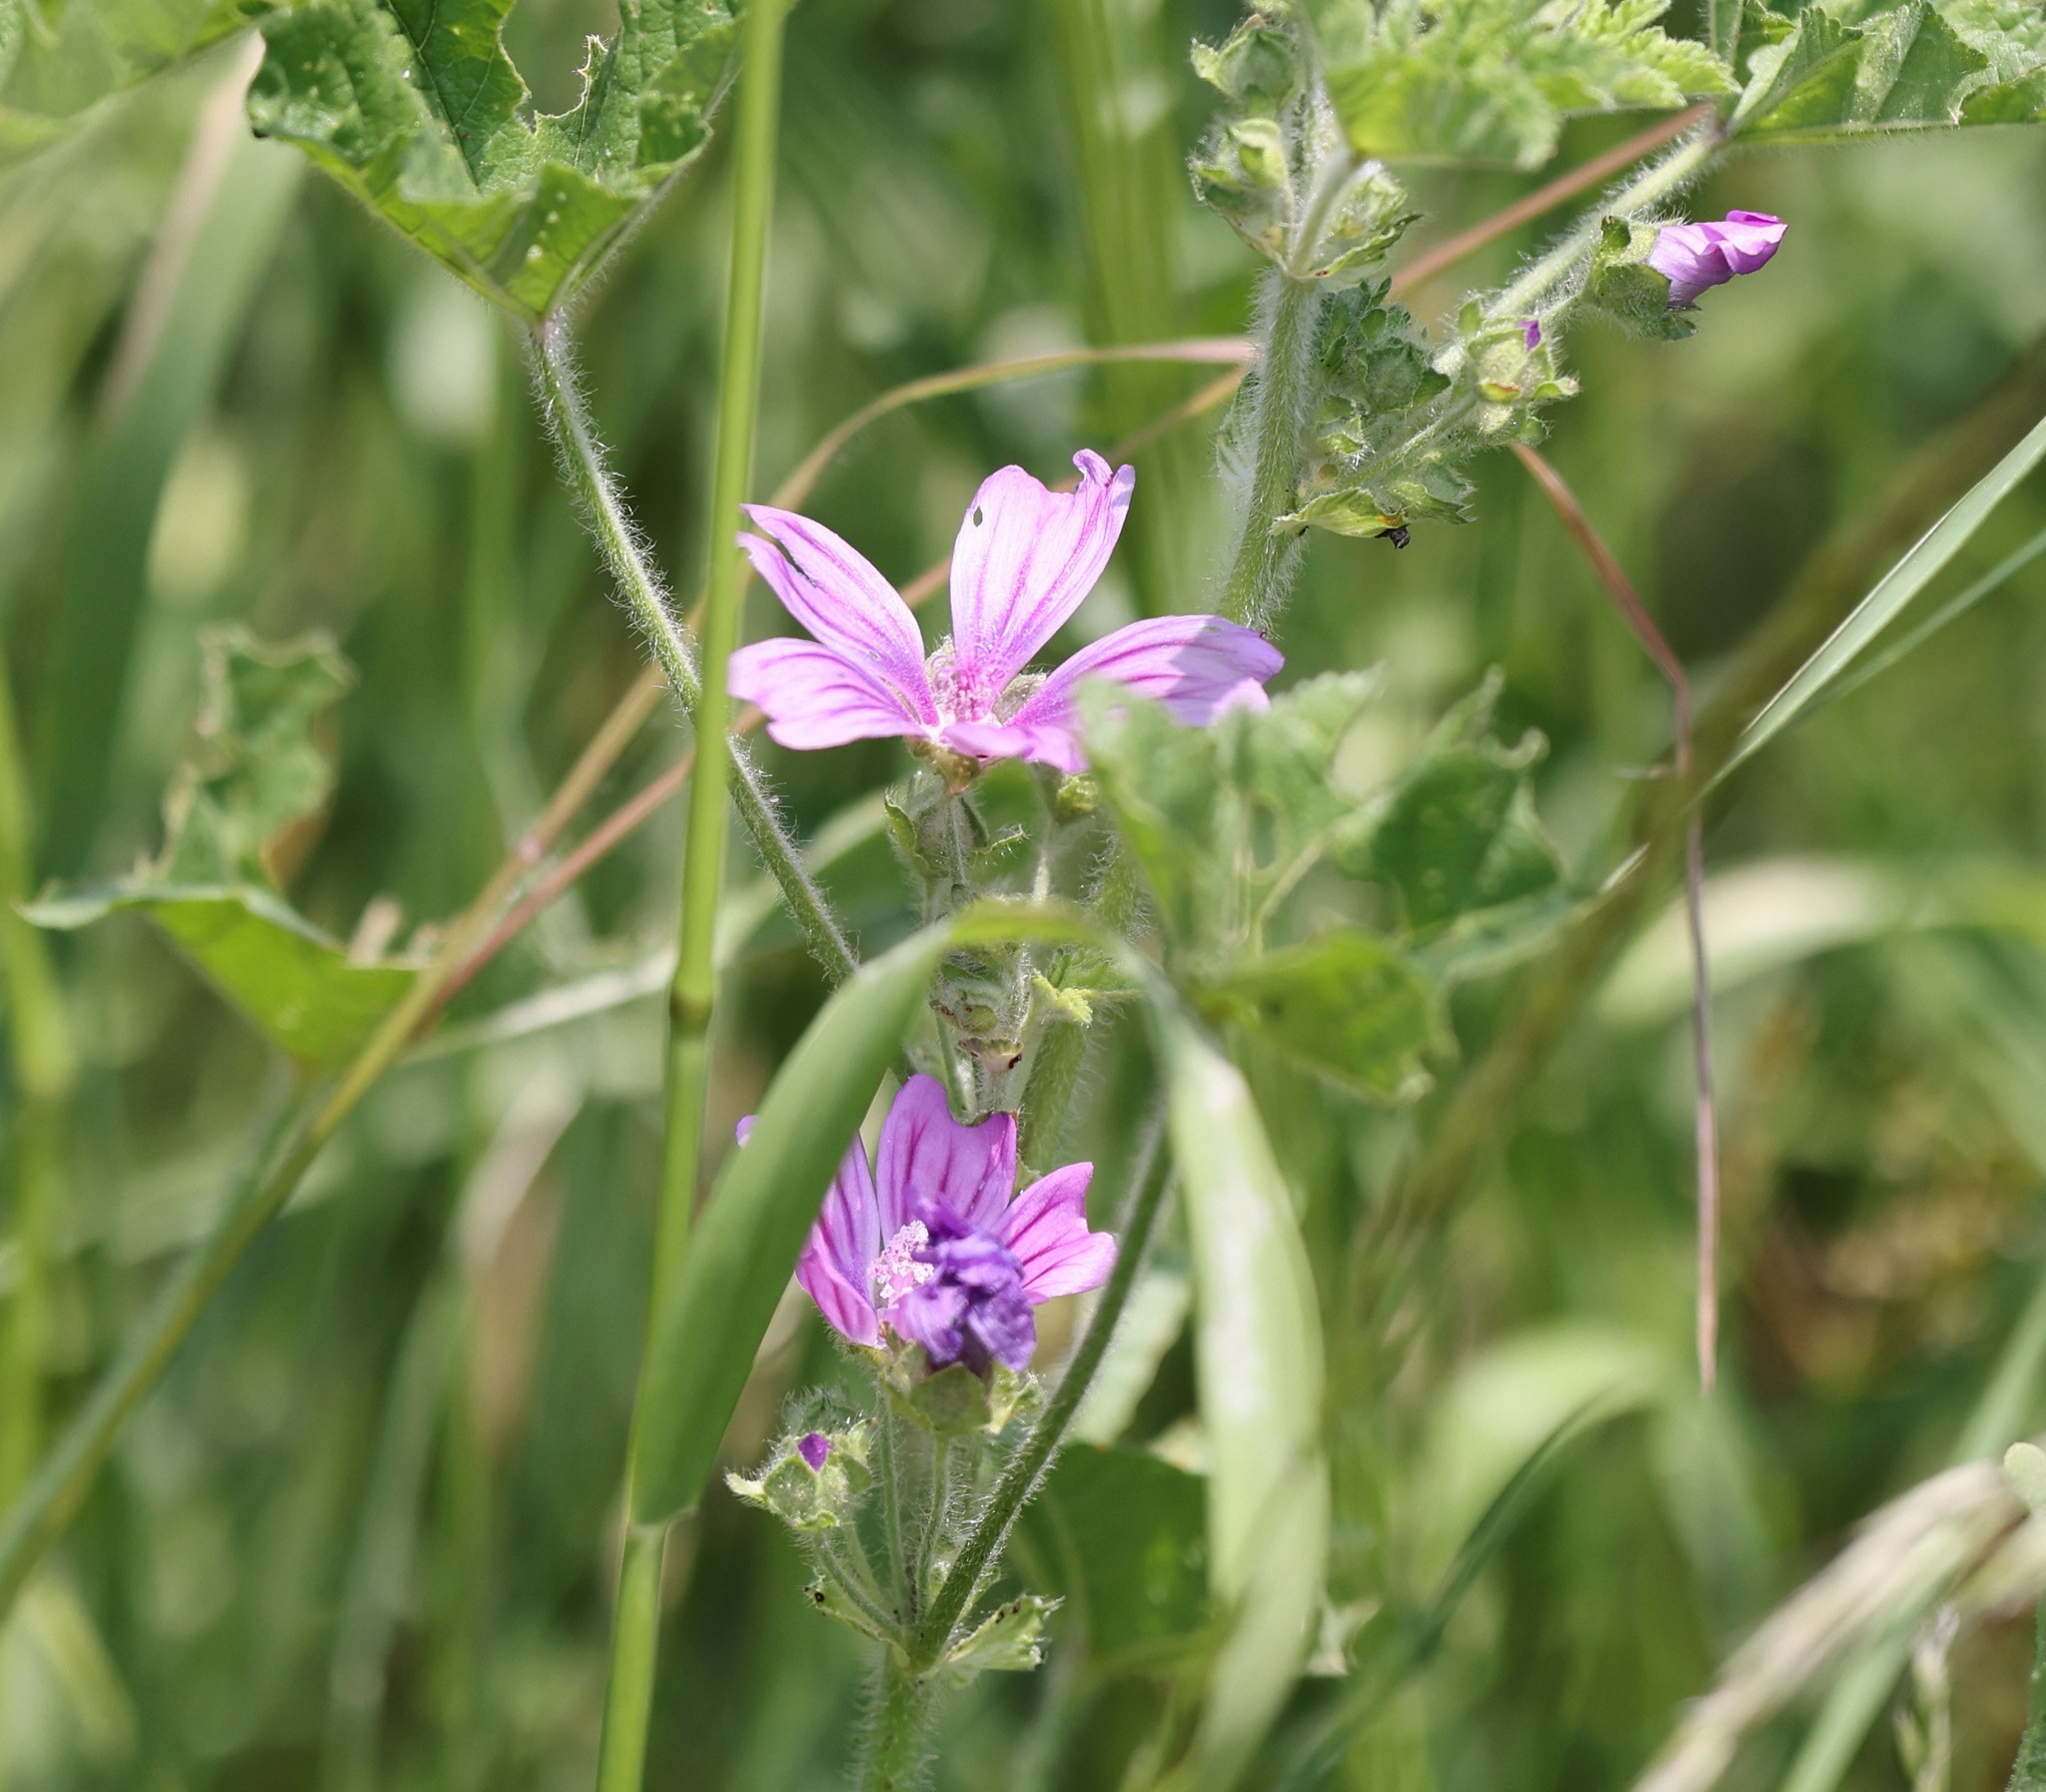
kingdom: Plantae
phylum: Tracheophyta
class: Magnoliopsida
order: Malvales
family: Malvaceae
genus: Malva
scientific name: Malva sylvestris
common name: Common mallow
